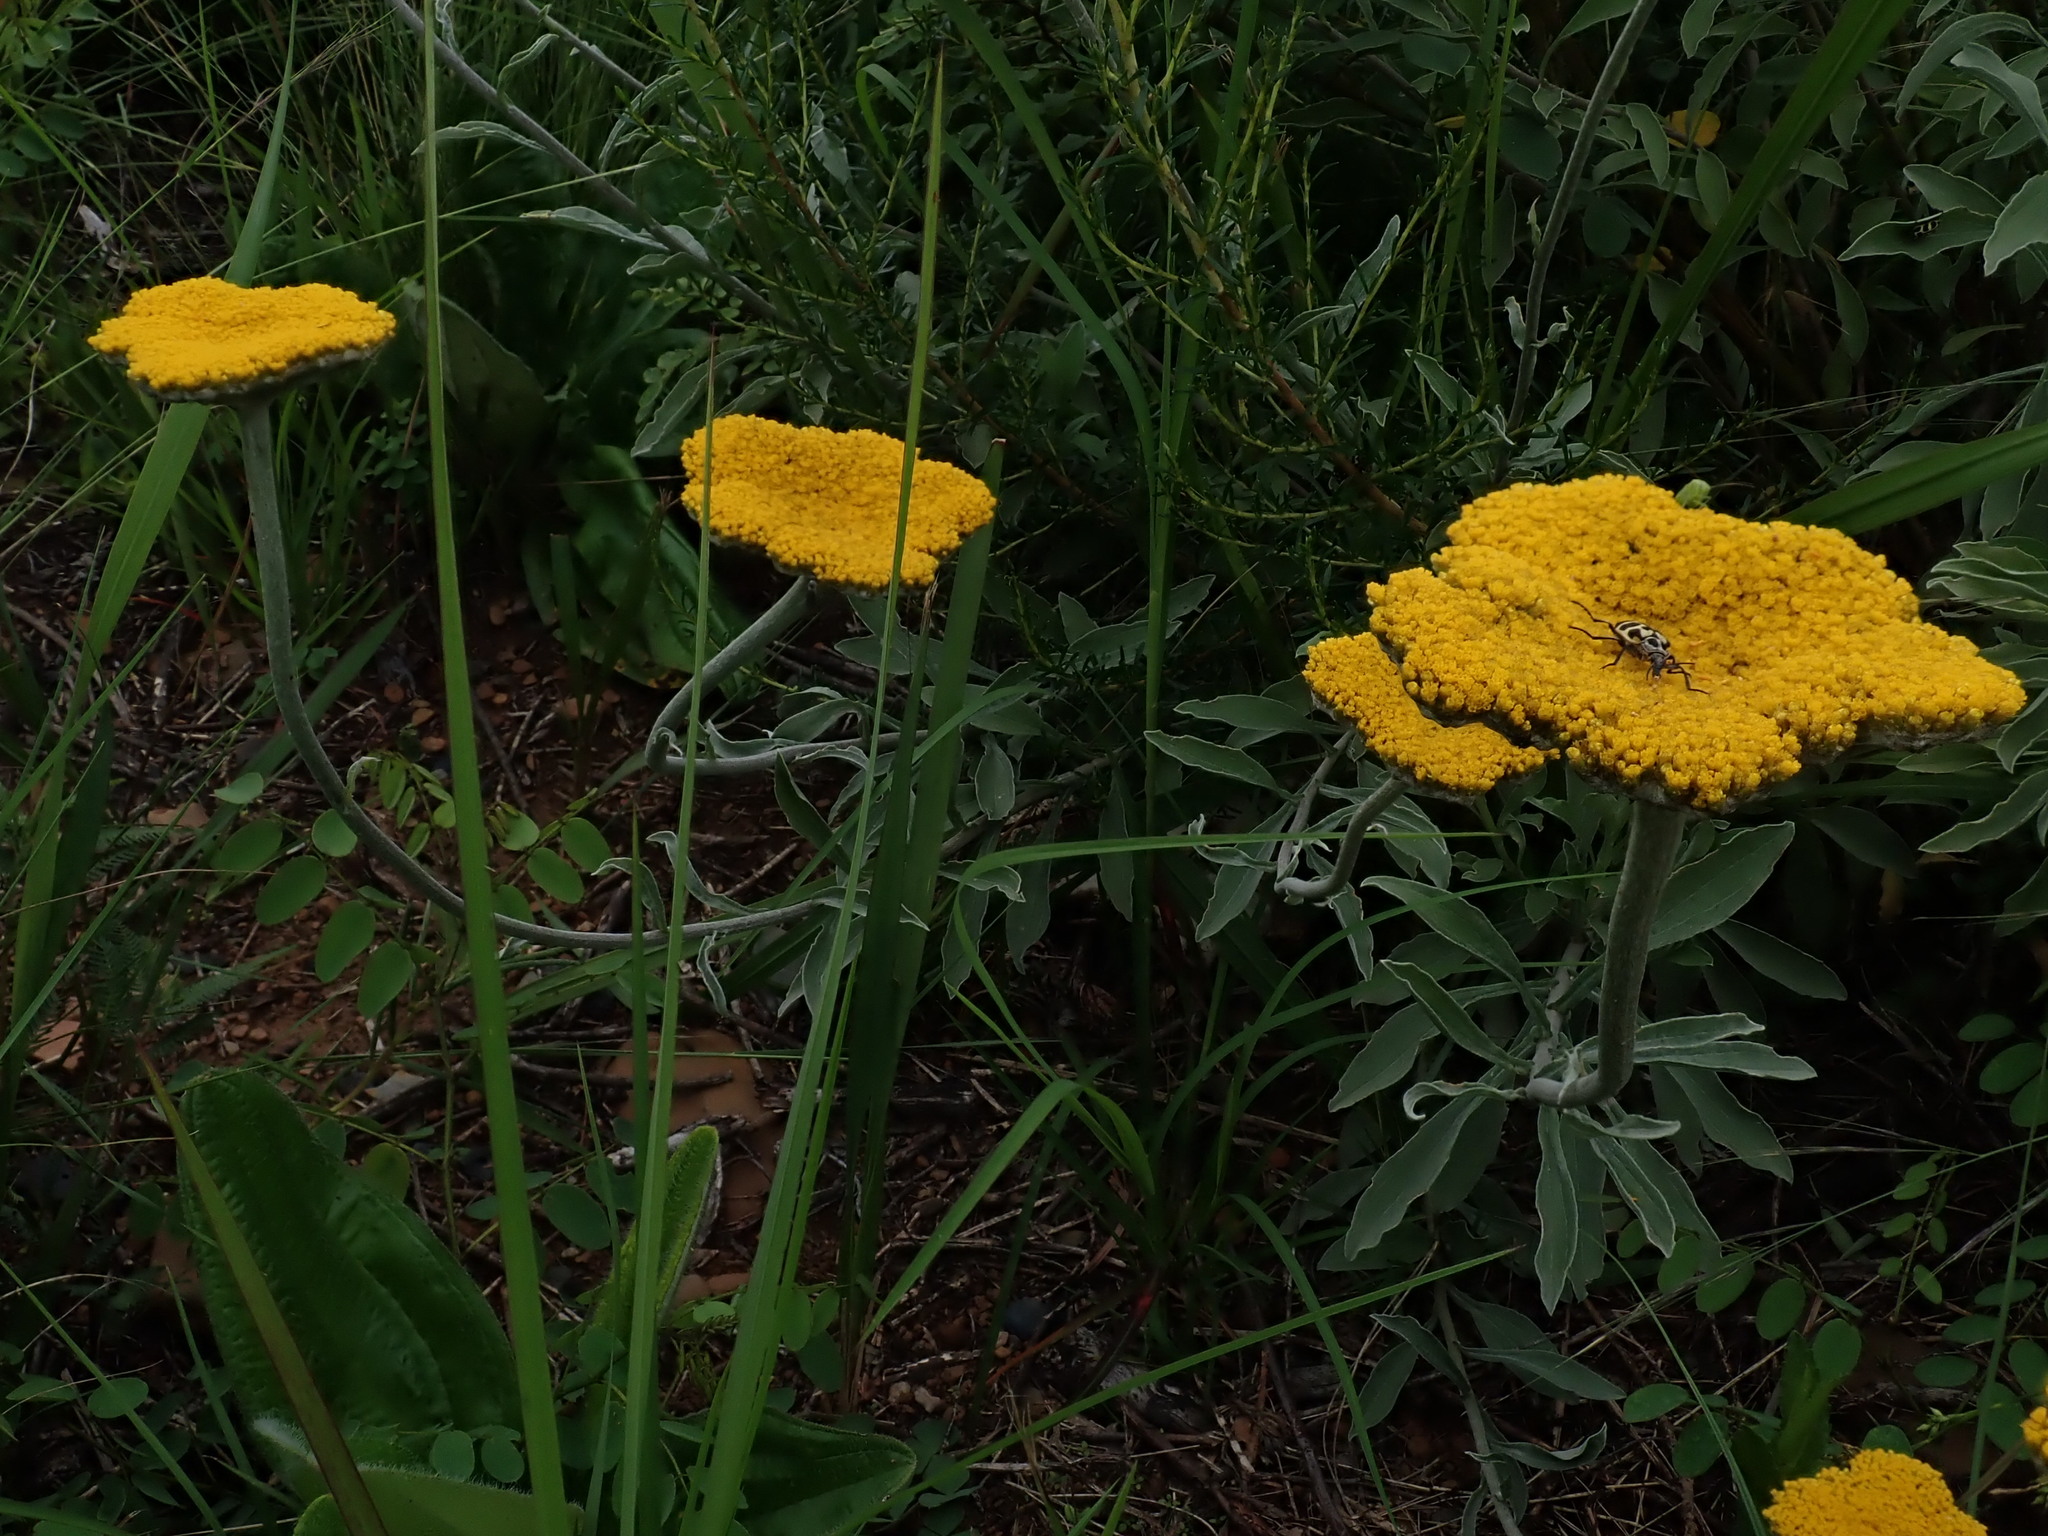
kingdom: Plantae
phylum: Tracheophyta
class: Magnoliopsida
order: Asterales
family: Asteraceae
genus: Helichrysum
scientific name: Helichrysum umbraculigerum
